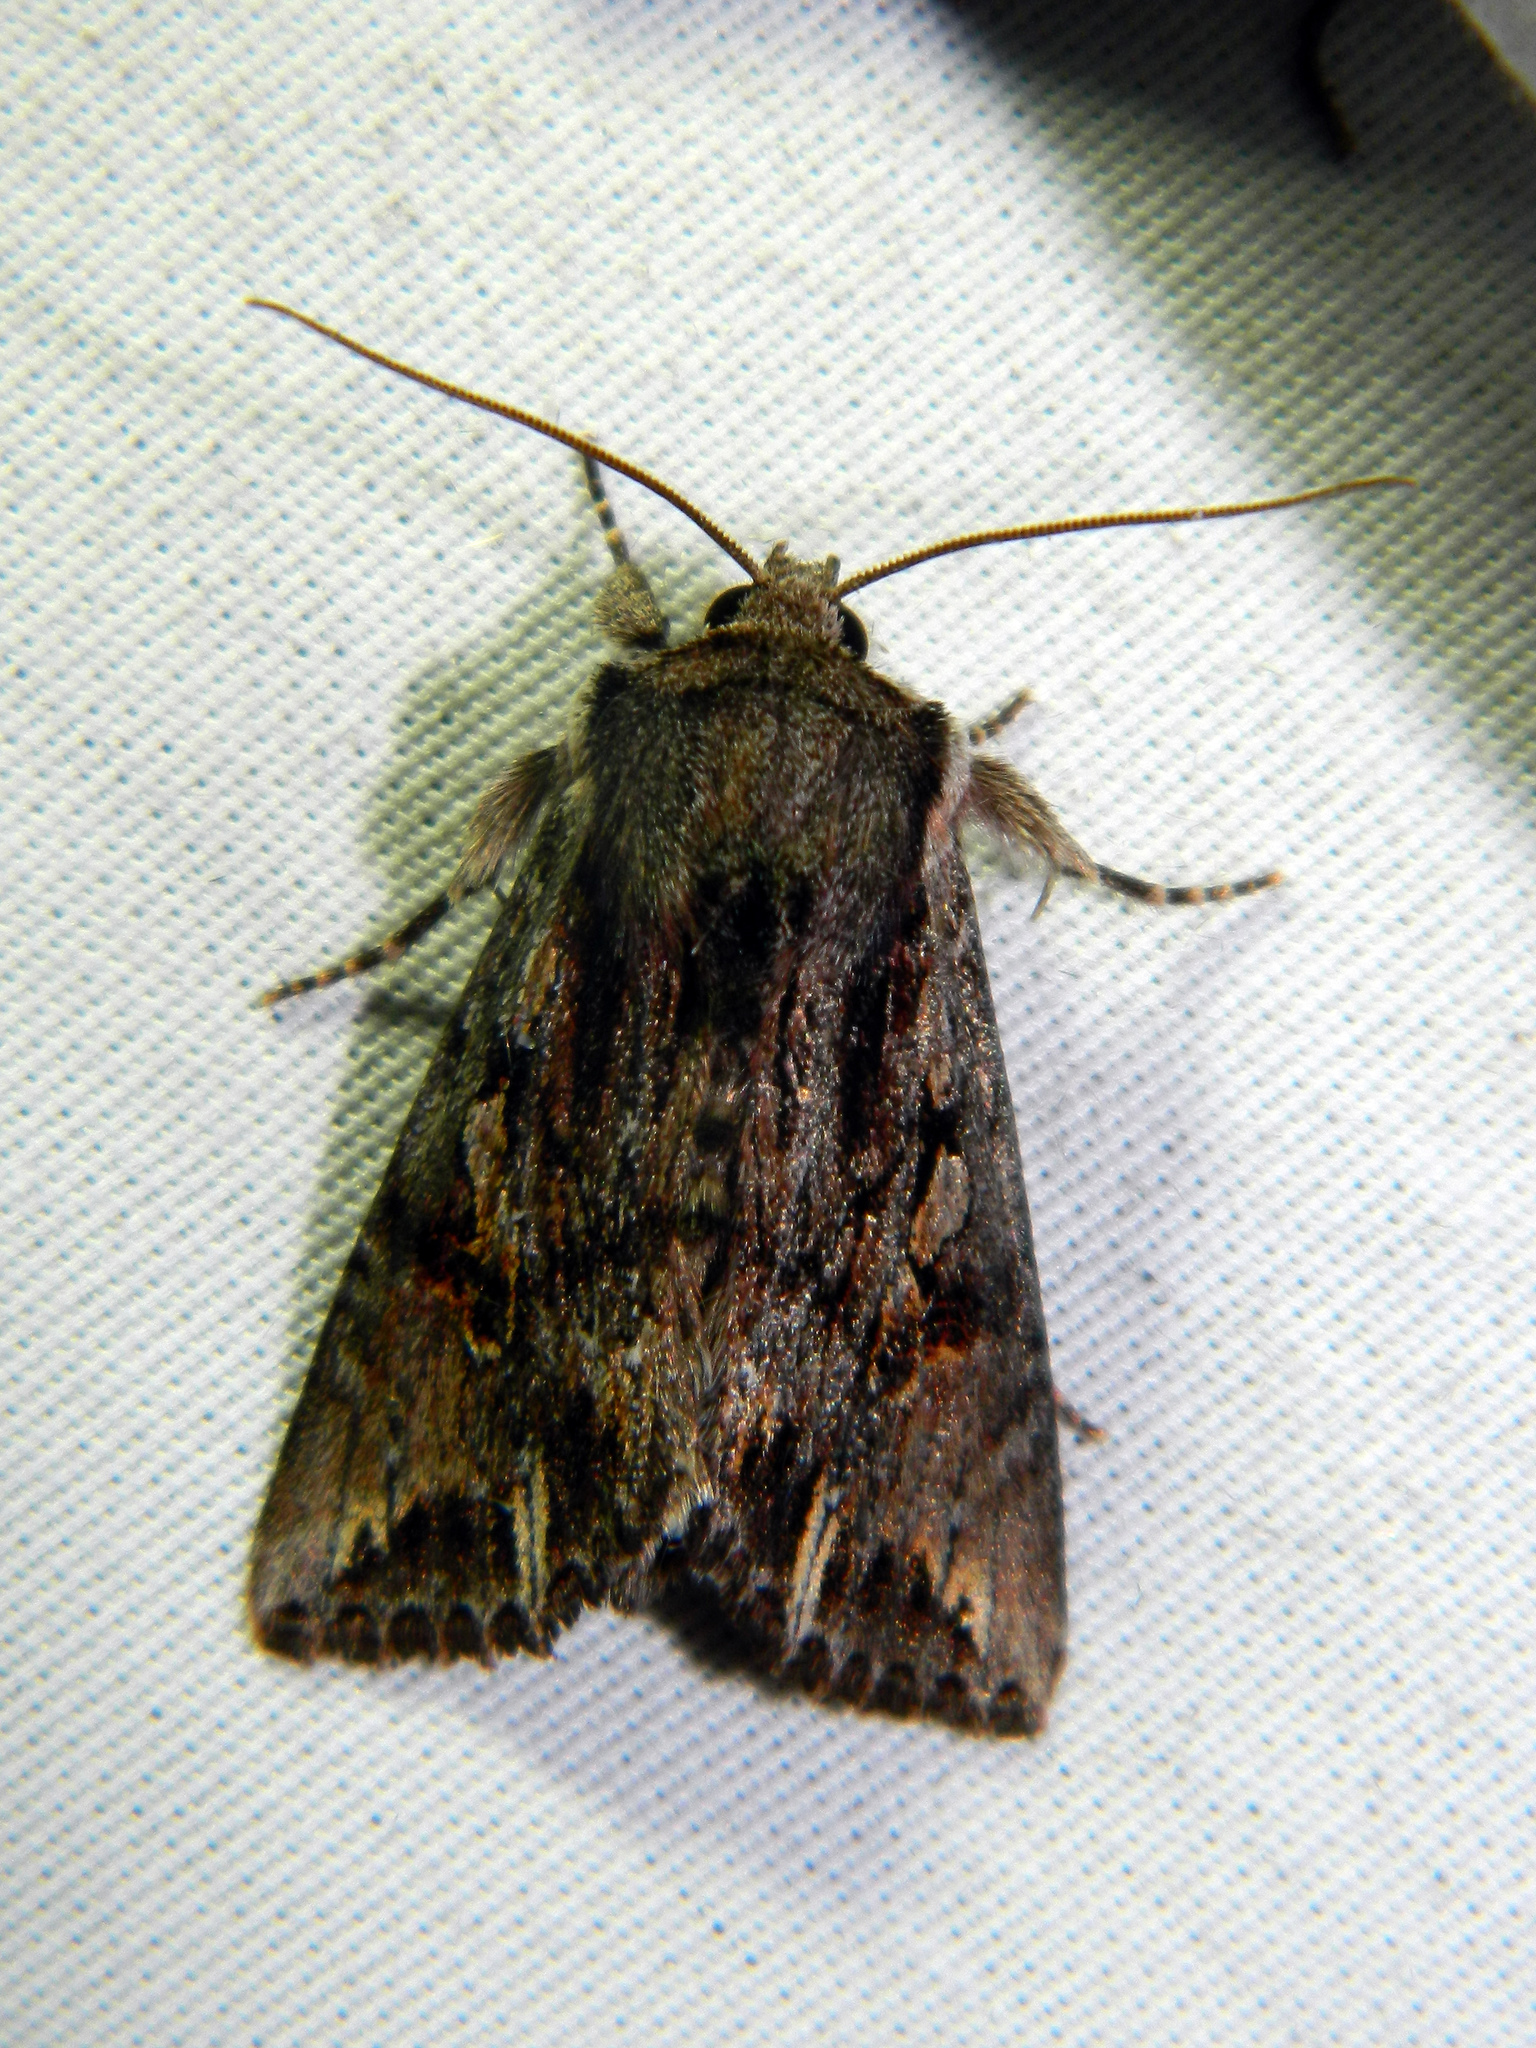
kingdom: Animalia
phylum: Arthropoda
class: Insecta
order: Lepidoptera
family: Noctuidae
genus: Achatia
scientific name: Achatia evicta
